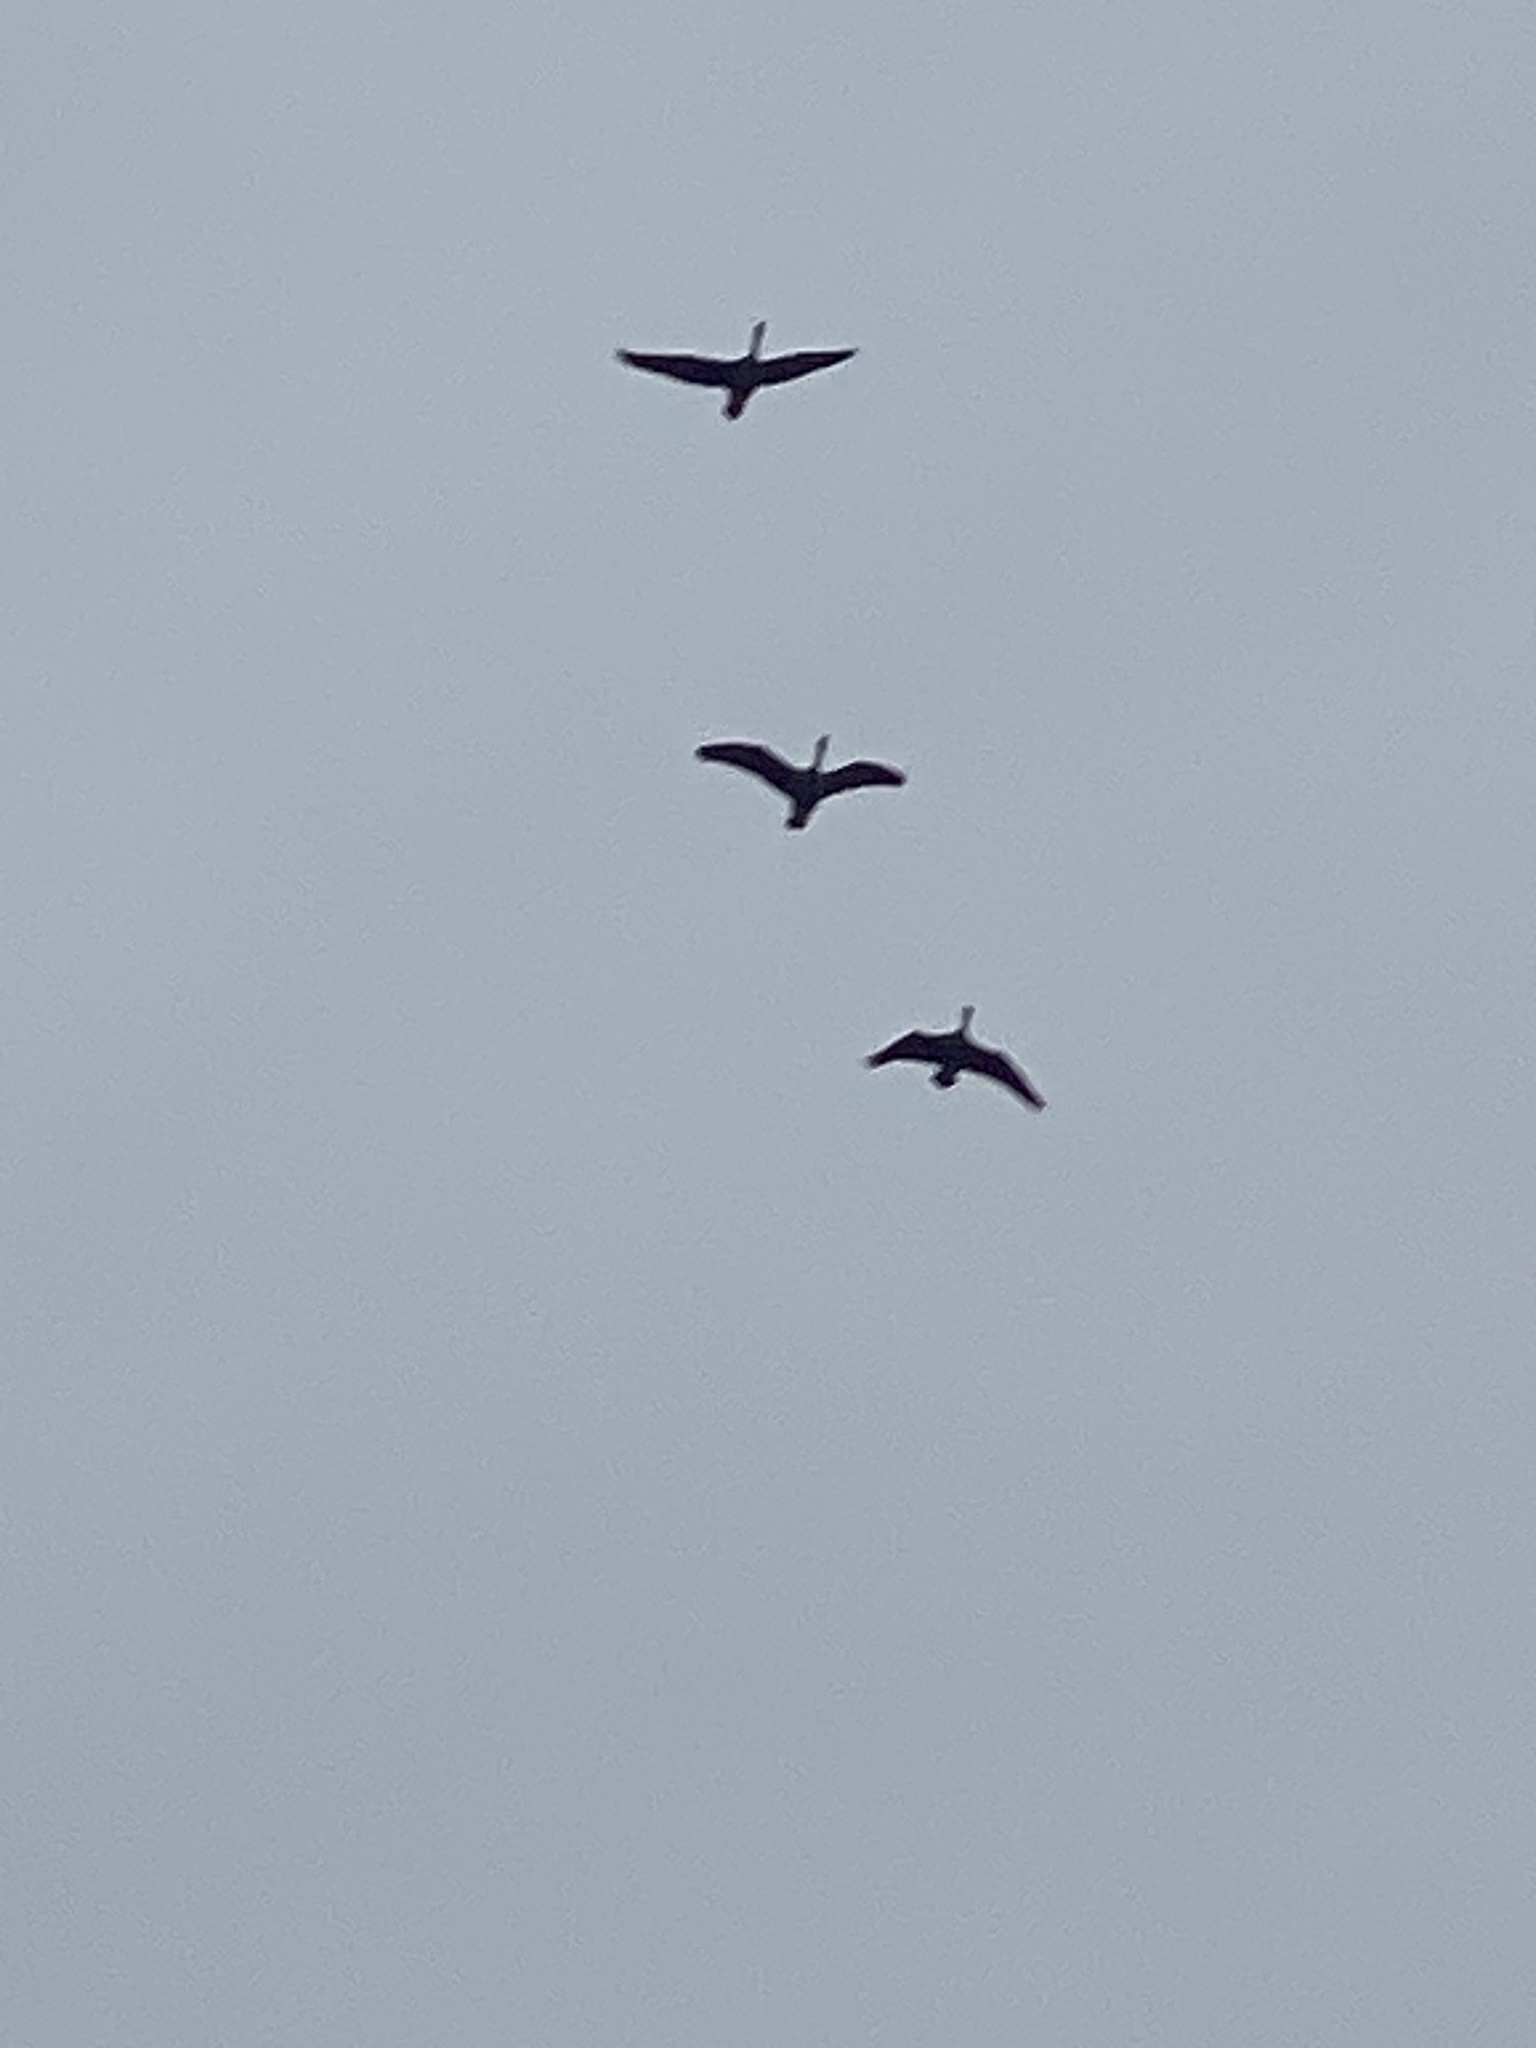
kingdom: Animalia
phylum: Chordata
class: Aves
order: Anseriformes
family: Anatidae
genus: Branta
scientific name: Branta canadensis
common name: Canada goose
